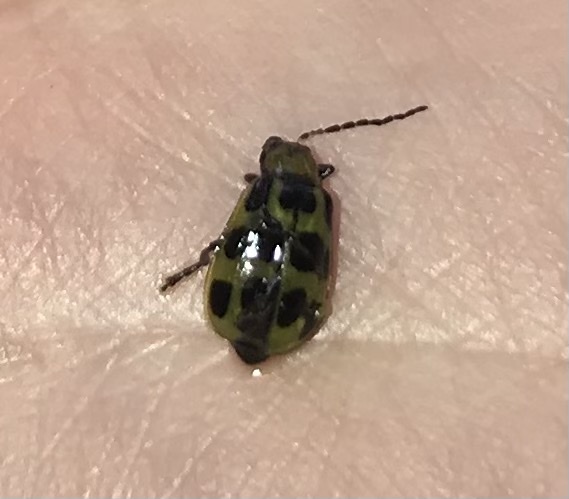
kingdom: Animalia
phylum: Arthropoda
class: Insecta
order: Coleoptera
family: Chrysomelidae
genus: Diabrotica
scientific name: Diabrotica undecimpunctata
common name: Spotted cucumber beetle
